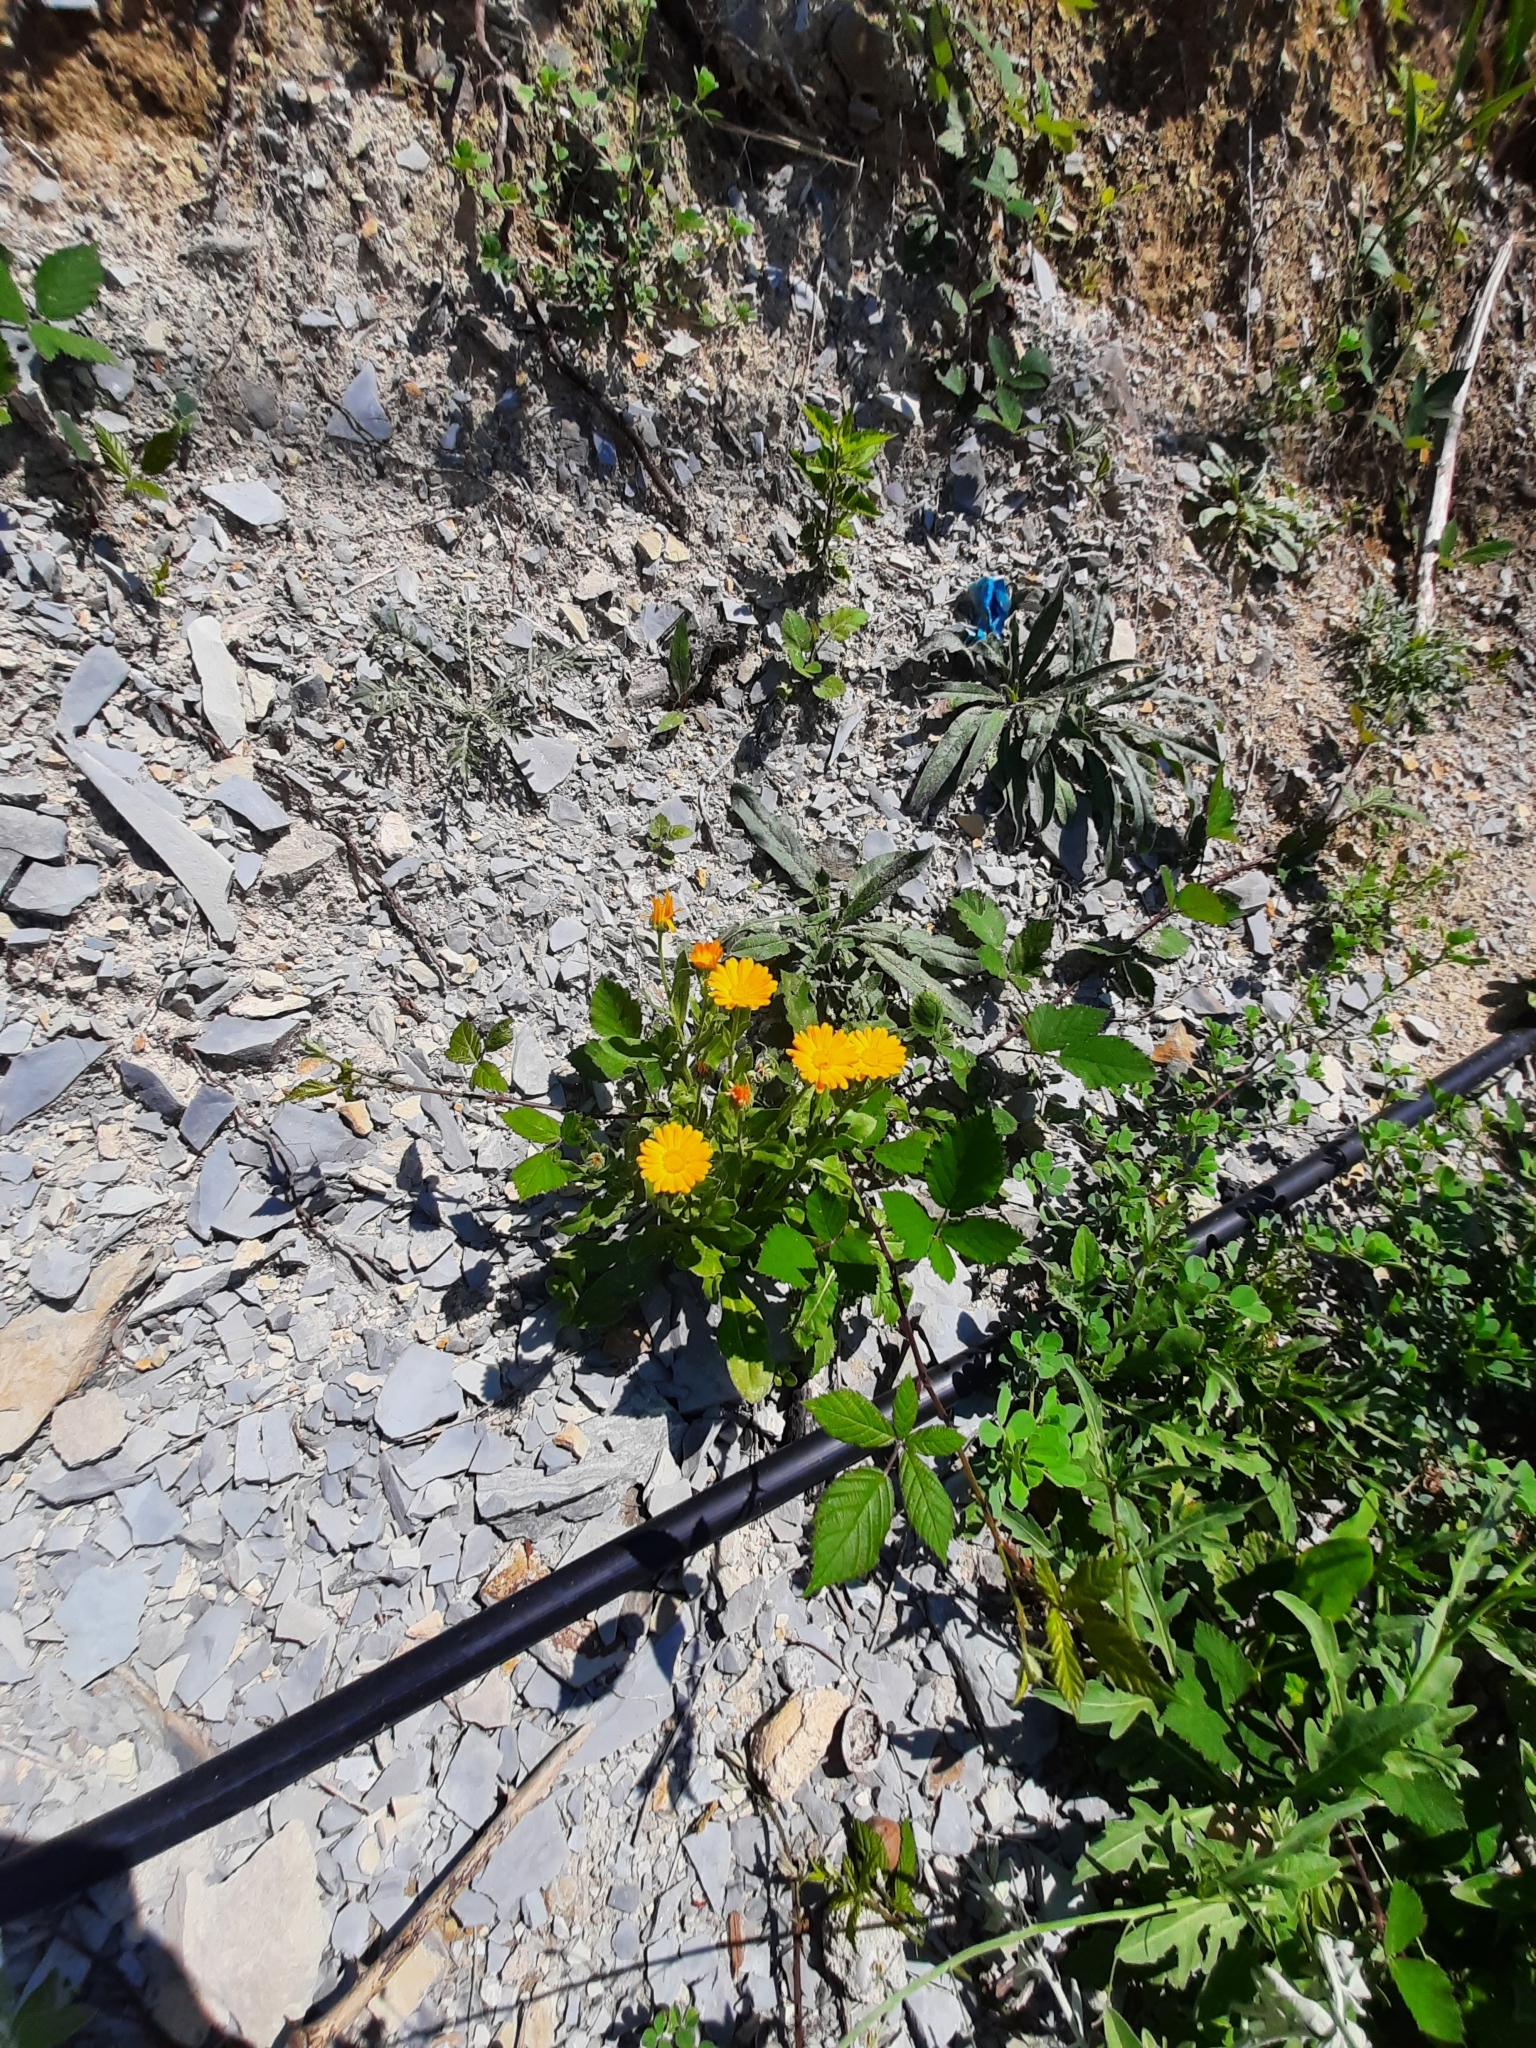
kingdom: Plantae
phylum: Tracheophyta
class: Magnoliopsida
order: Asterales
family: Asteraceae
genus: Calendula
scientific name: Calendula officinalis
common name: Pot marigold
